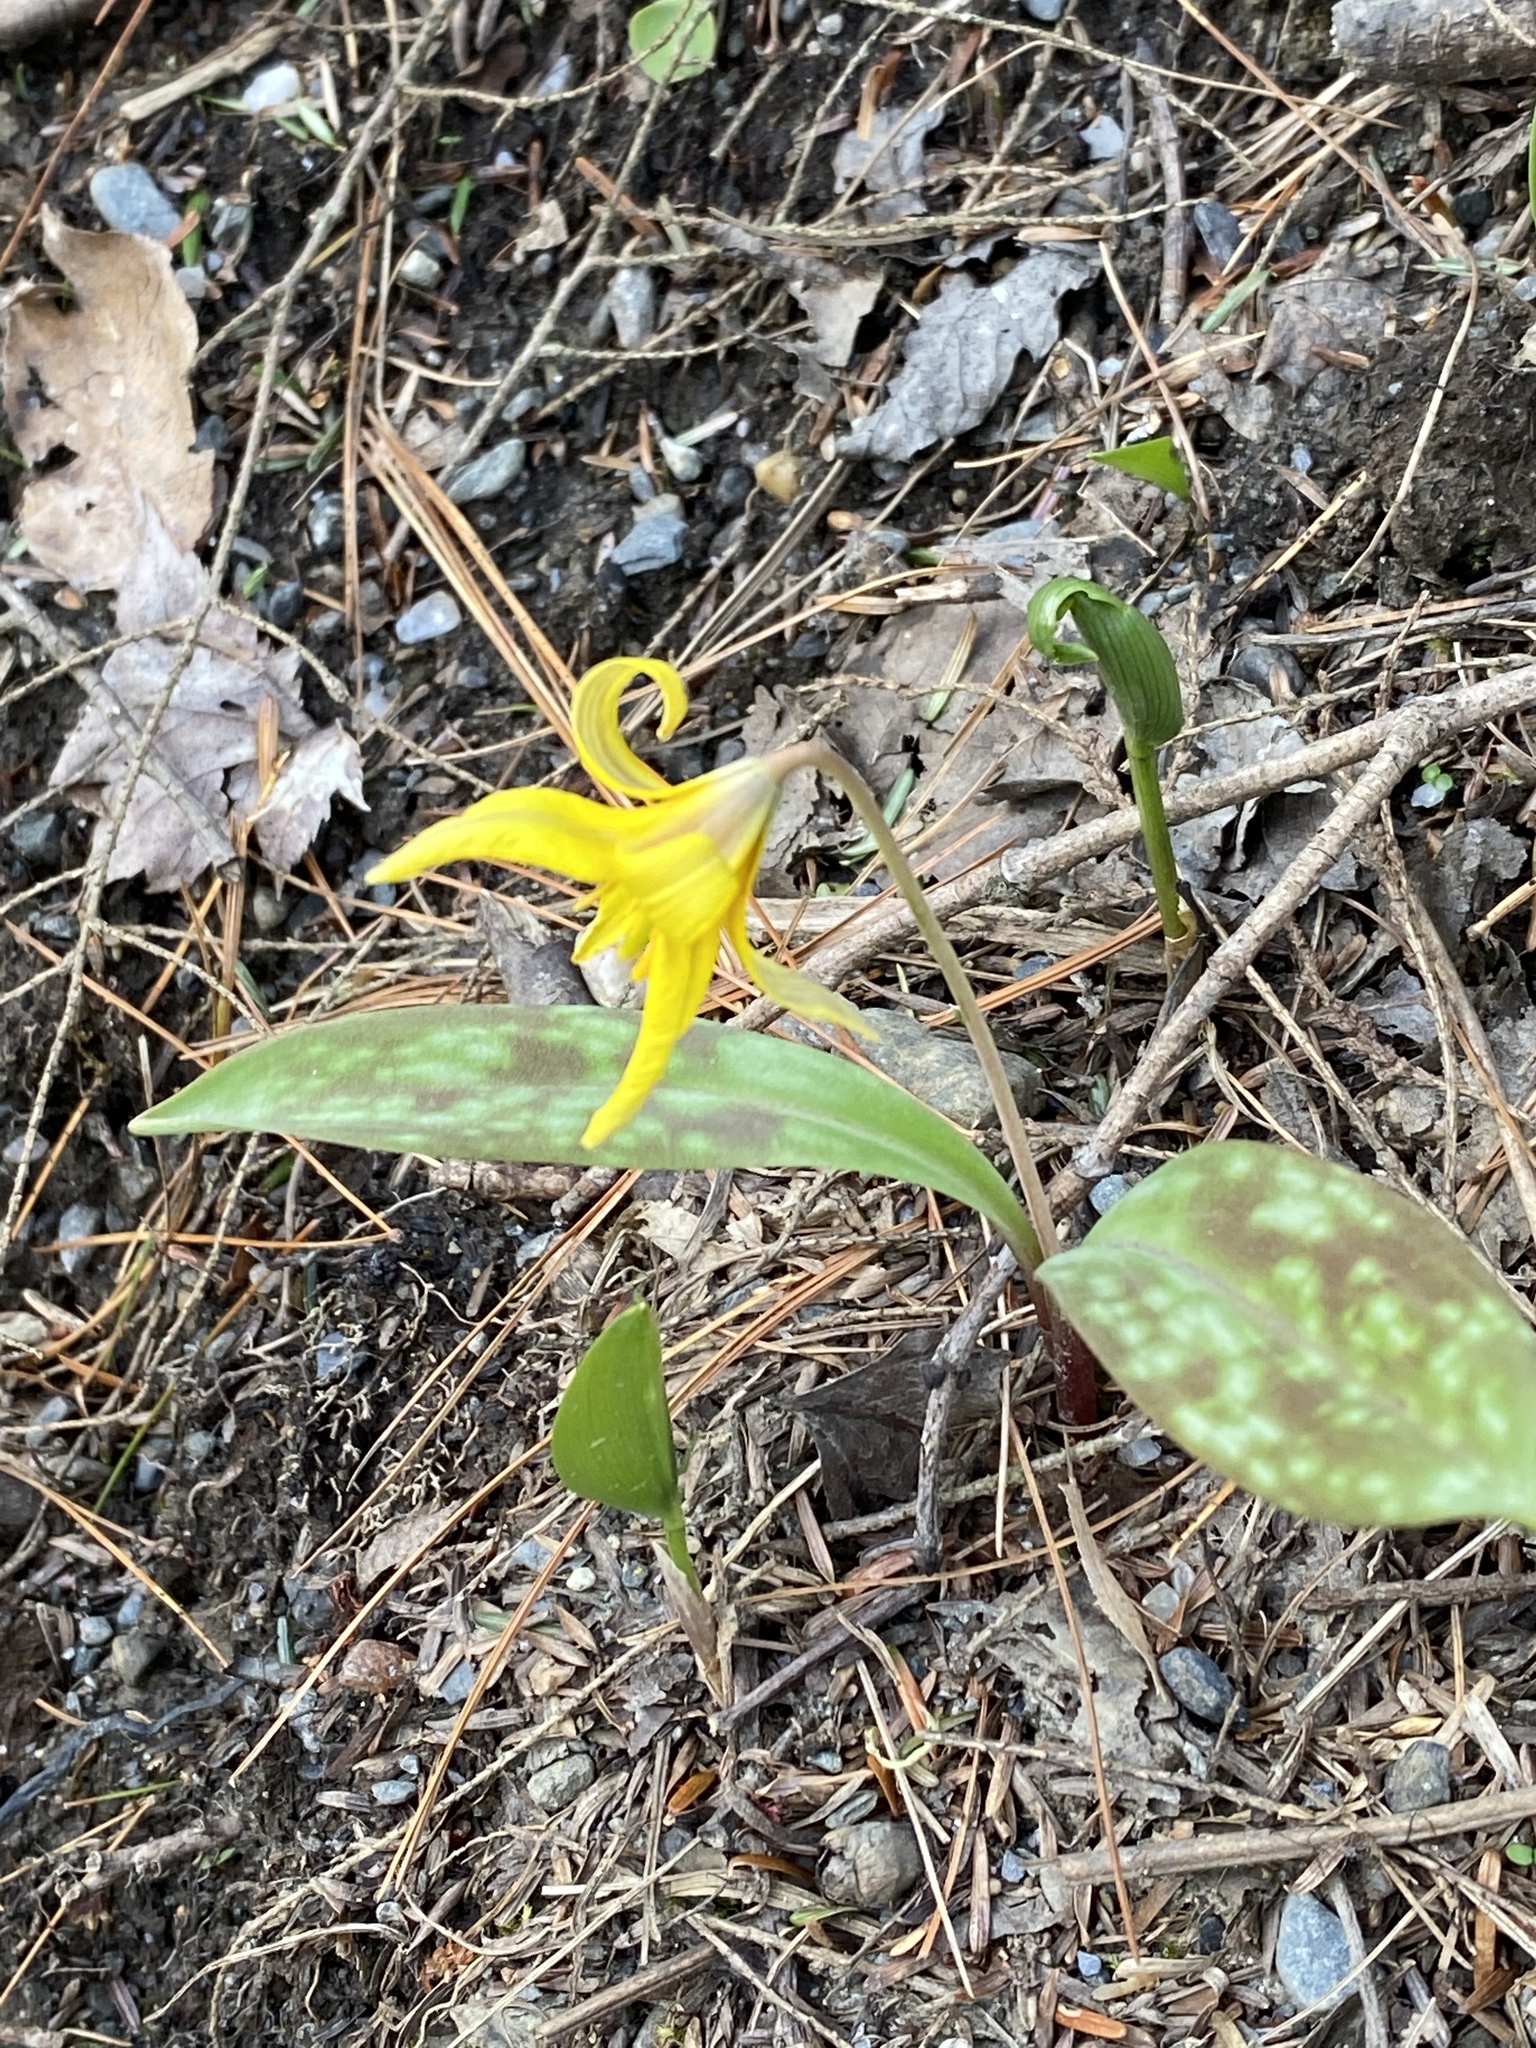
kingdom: Plantae
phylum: Tracheophyta
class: Liliopsida
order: Liliales
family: Liliaceae
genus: Erythronium
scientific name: Erythronium americanum
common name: Yellow adder's-tongue
